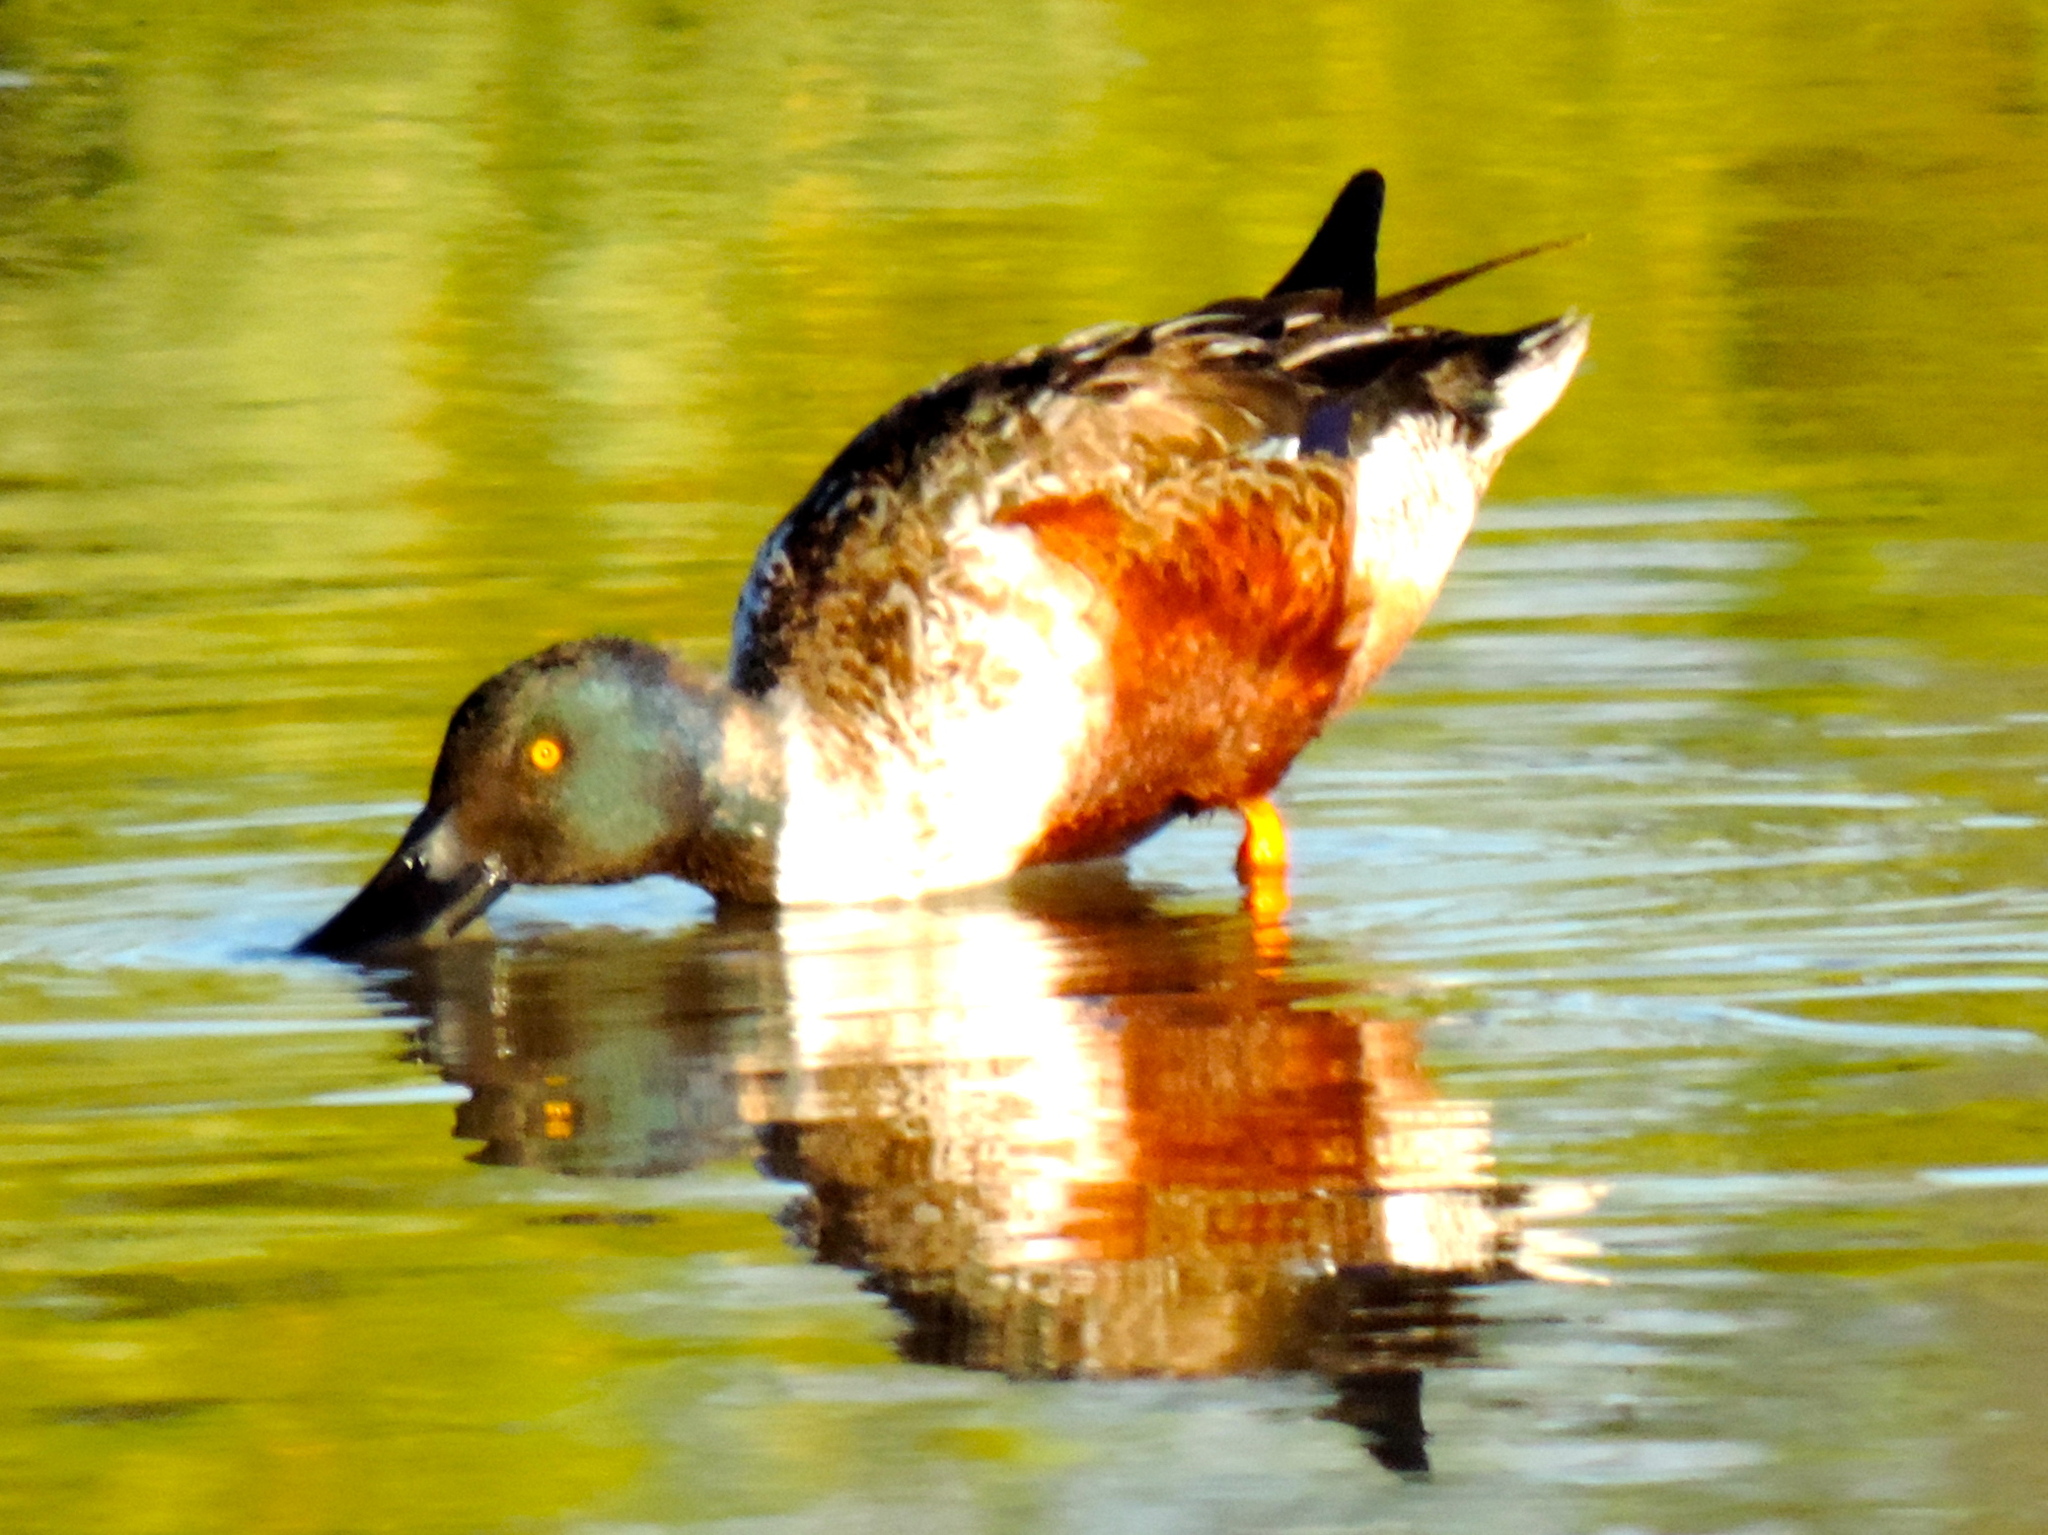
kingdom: Animalia
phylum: Chordata
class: Aves
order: Anseriformes
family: Anatidae
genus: Spatula
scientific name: Spatula clypeata
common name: Northern shoveler
